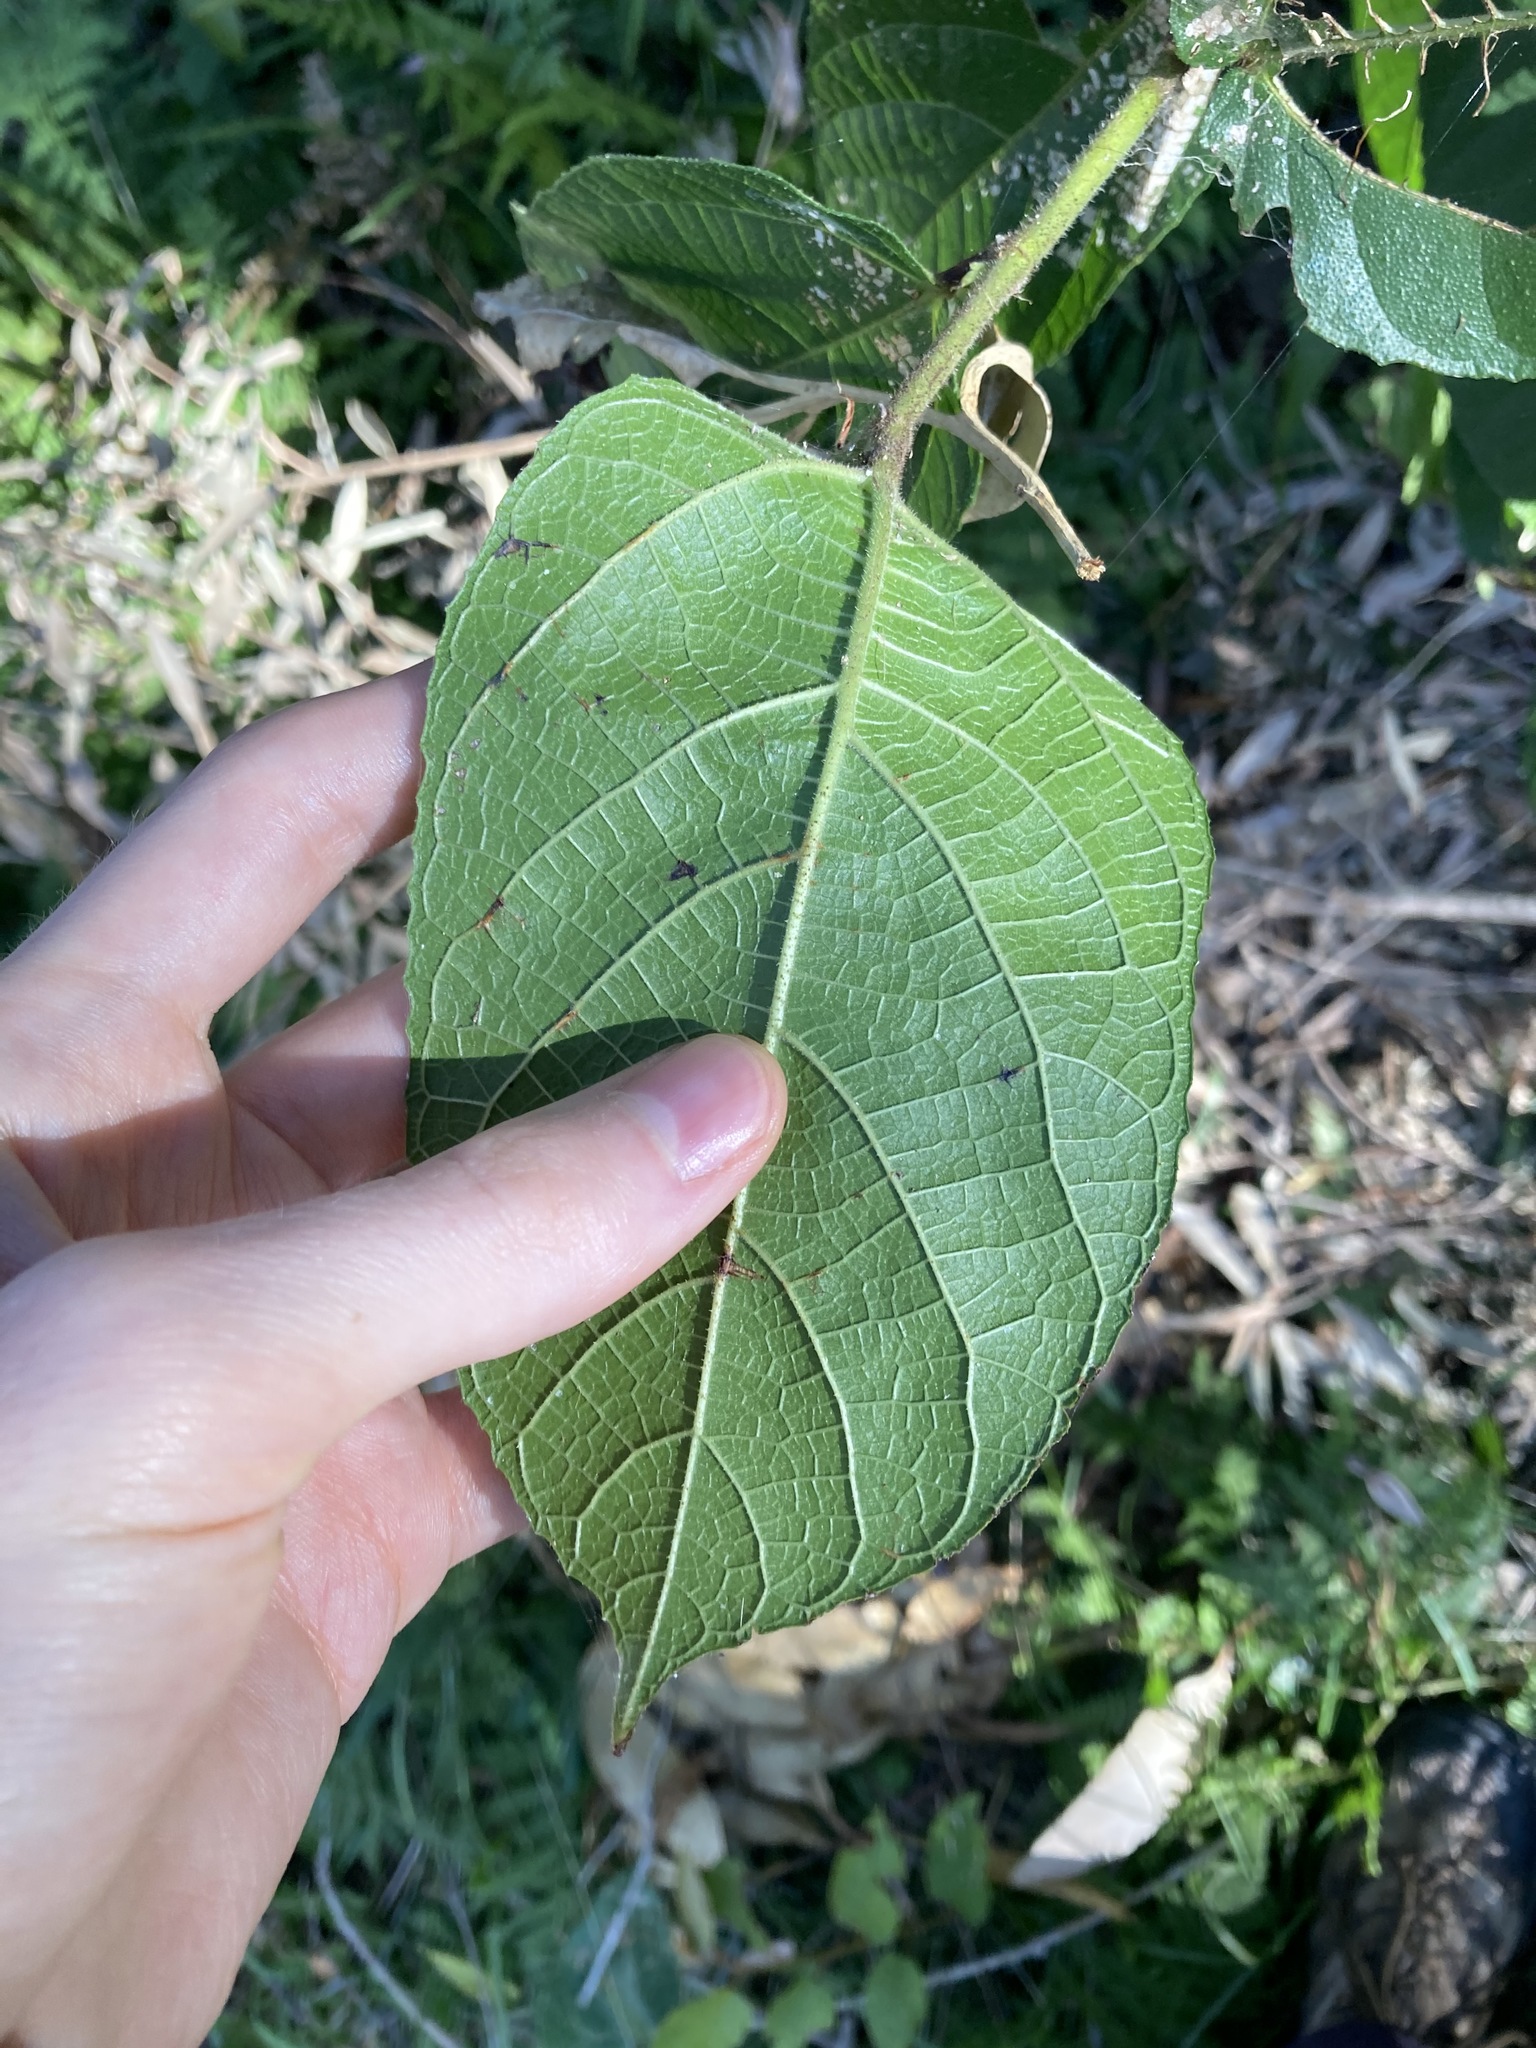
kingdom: Plantae
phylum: Tracheophyta
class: Magnoliopsida
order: Rosales
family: Moraceae
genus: Ficus
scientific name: Ficus coronata
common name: Creek sandpaper fig
